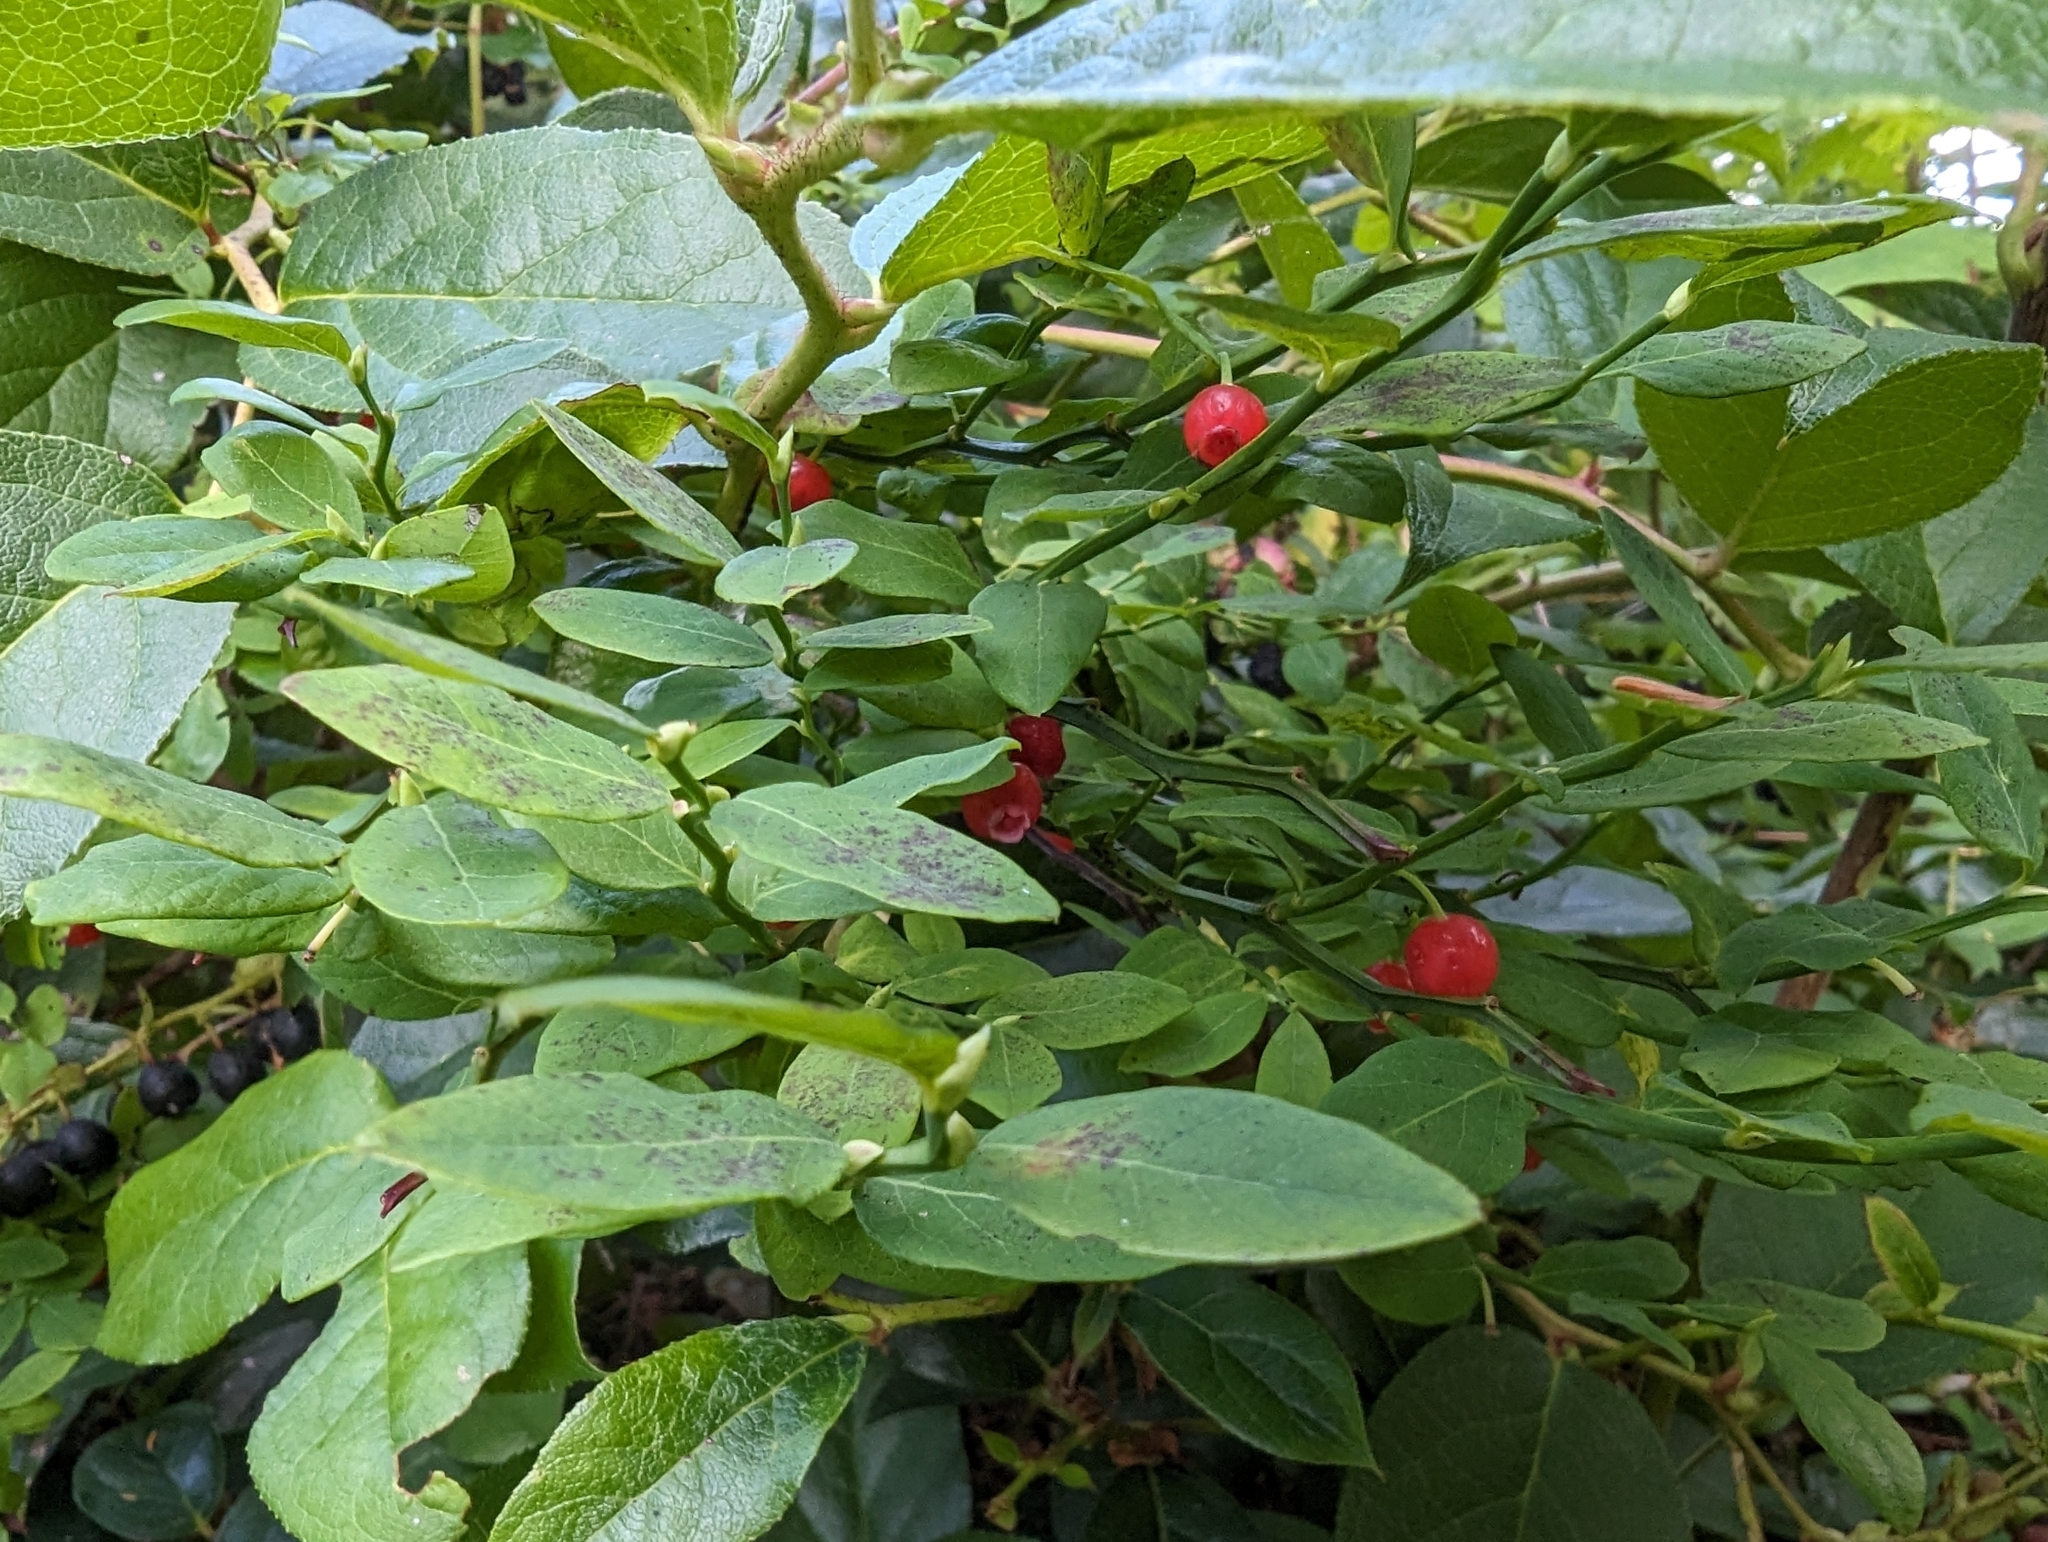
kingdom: Plantae
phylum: Tracheophyta
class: Magnoliopsida
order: Ericales
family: Ericaceae
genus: Vaccinium
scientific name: Vaccinium parvifolium
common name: Red-huckleberry
